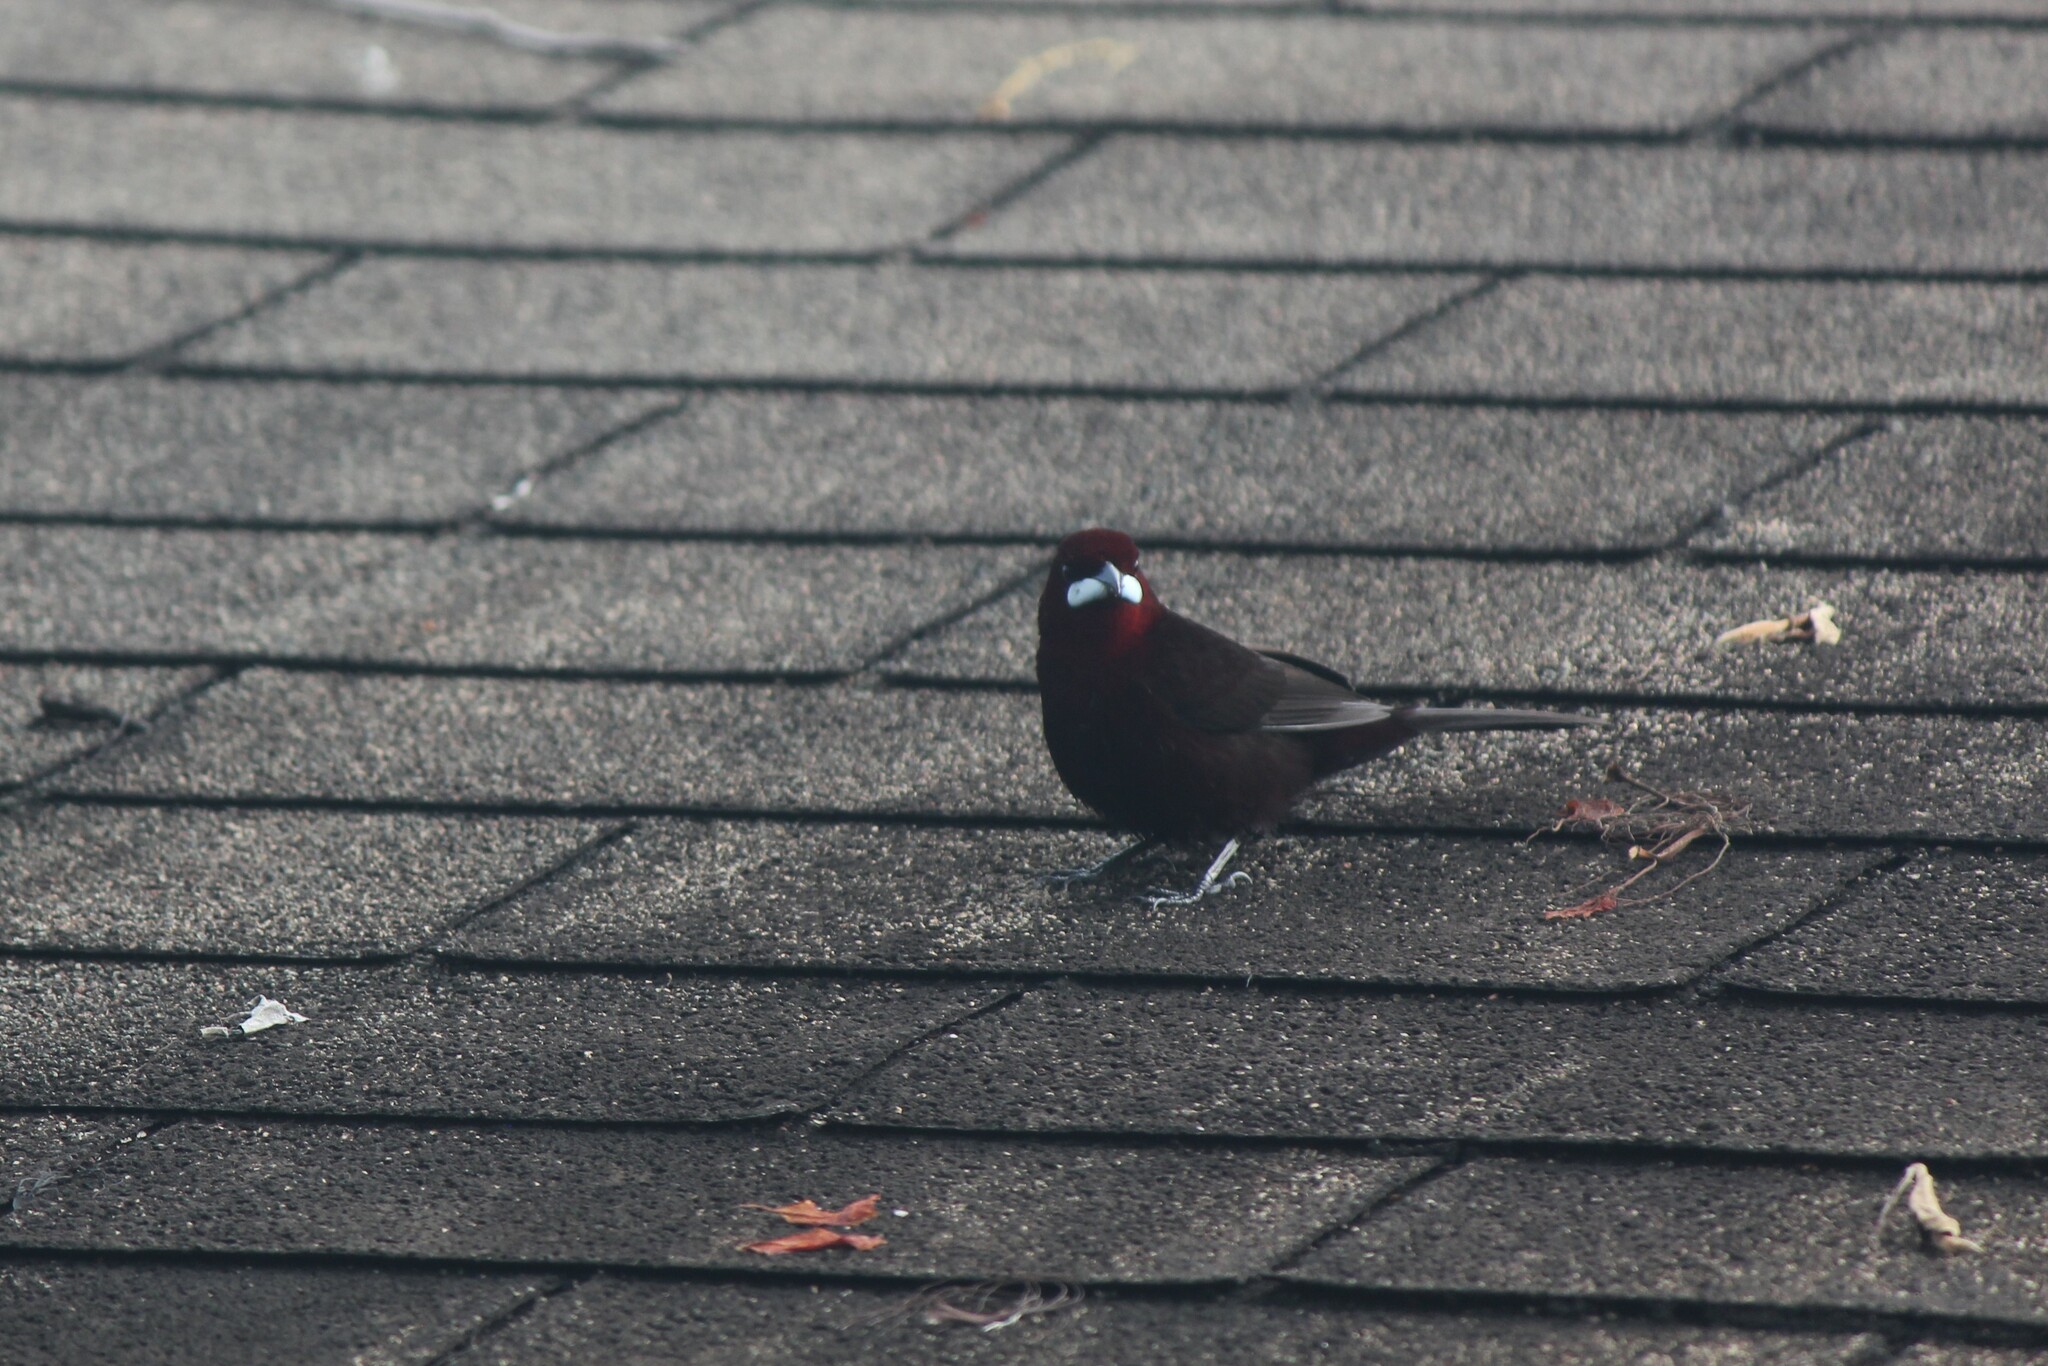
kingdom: Animalia
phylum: Chordata
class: Aves
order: Passeriformes
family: Thraupidae
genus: Ramphocelus
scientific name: Ramphocelus carbo
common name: Silver-beaked tanager
